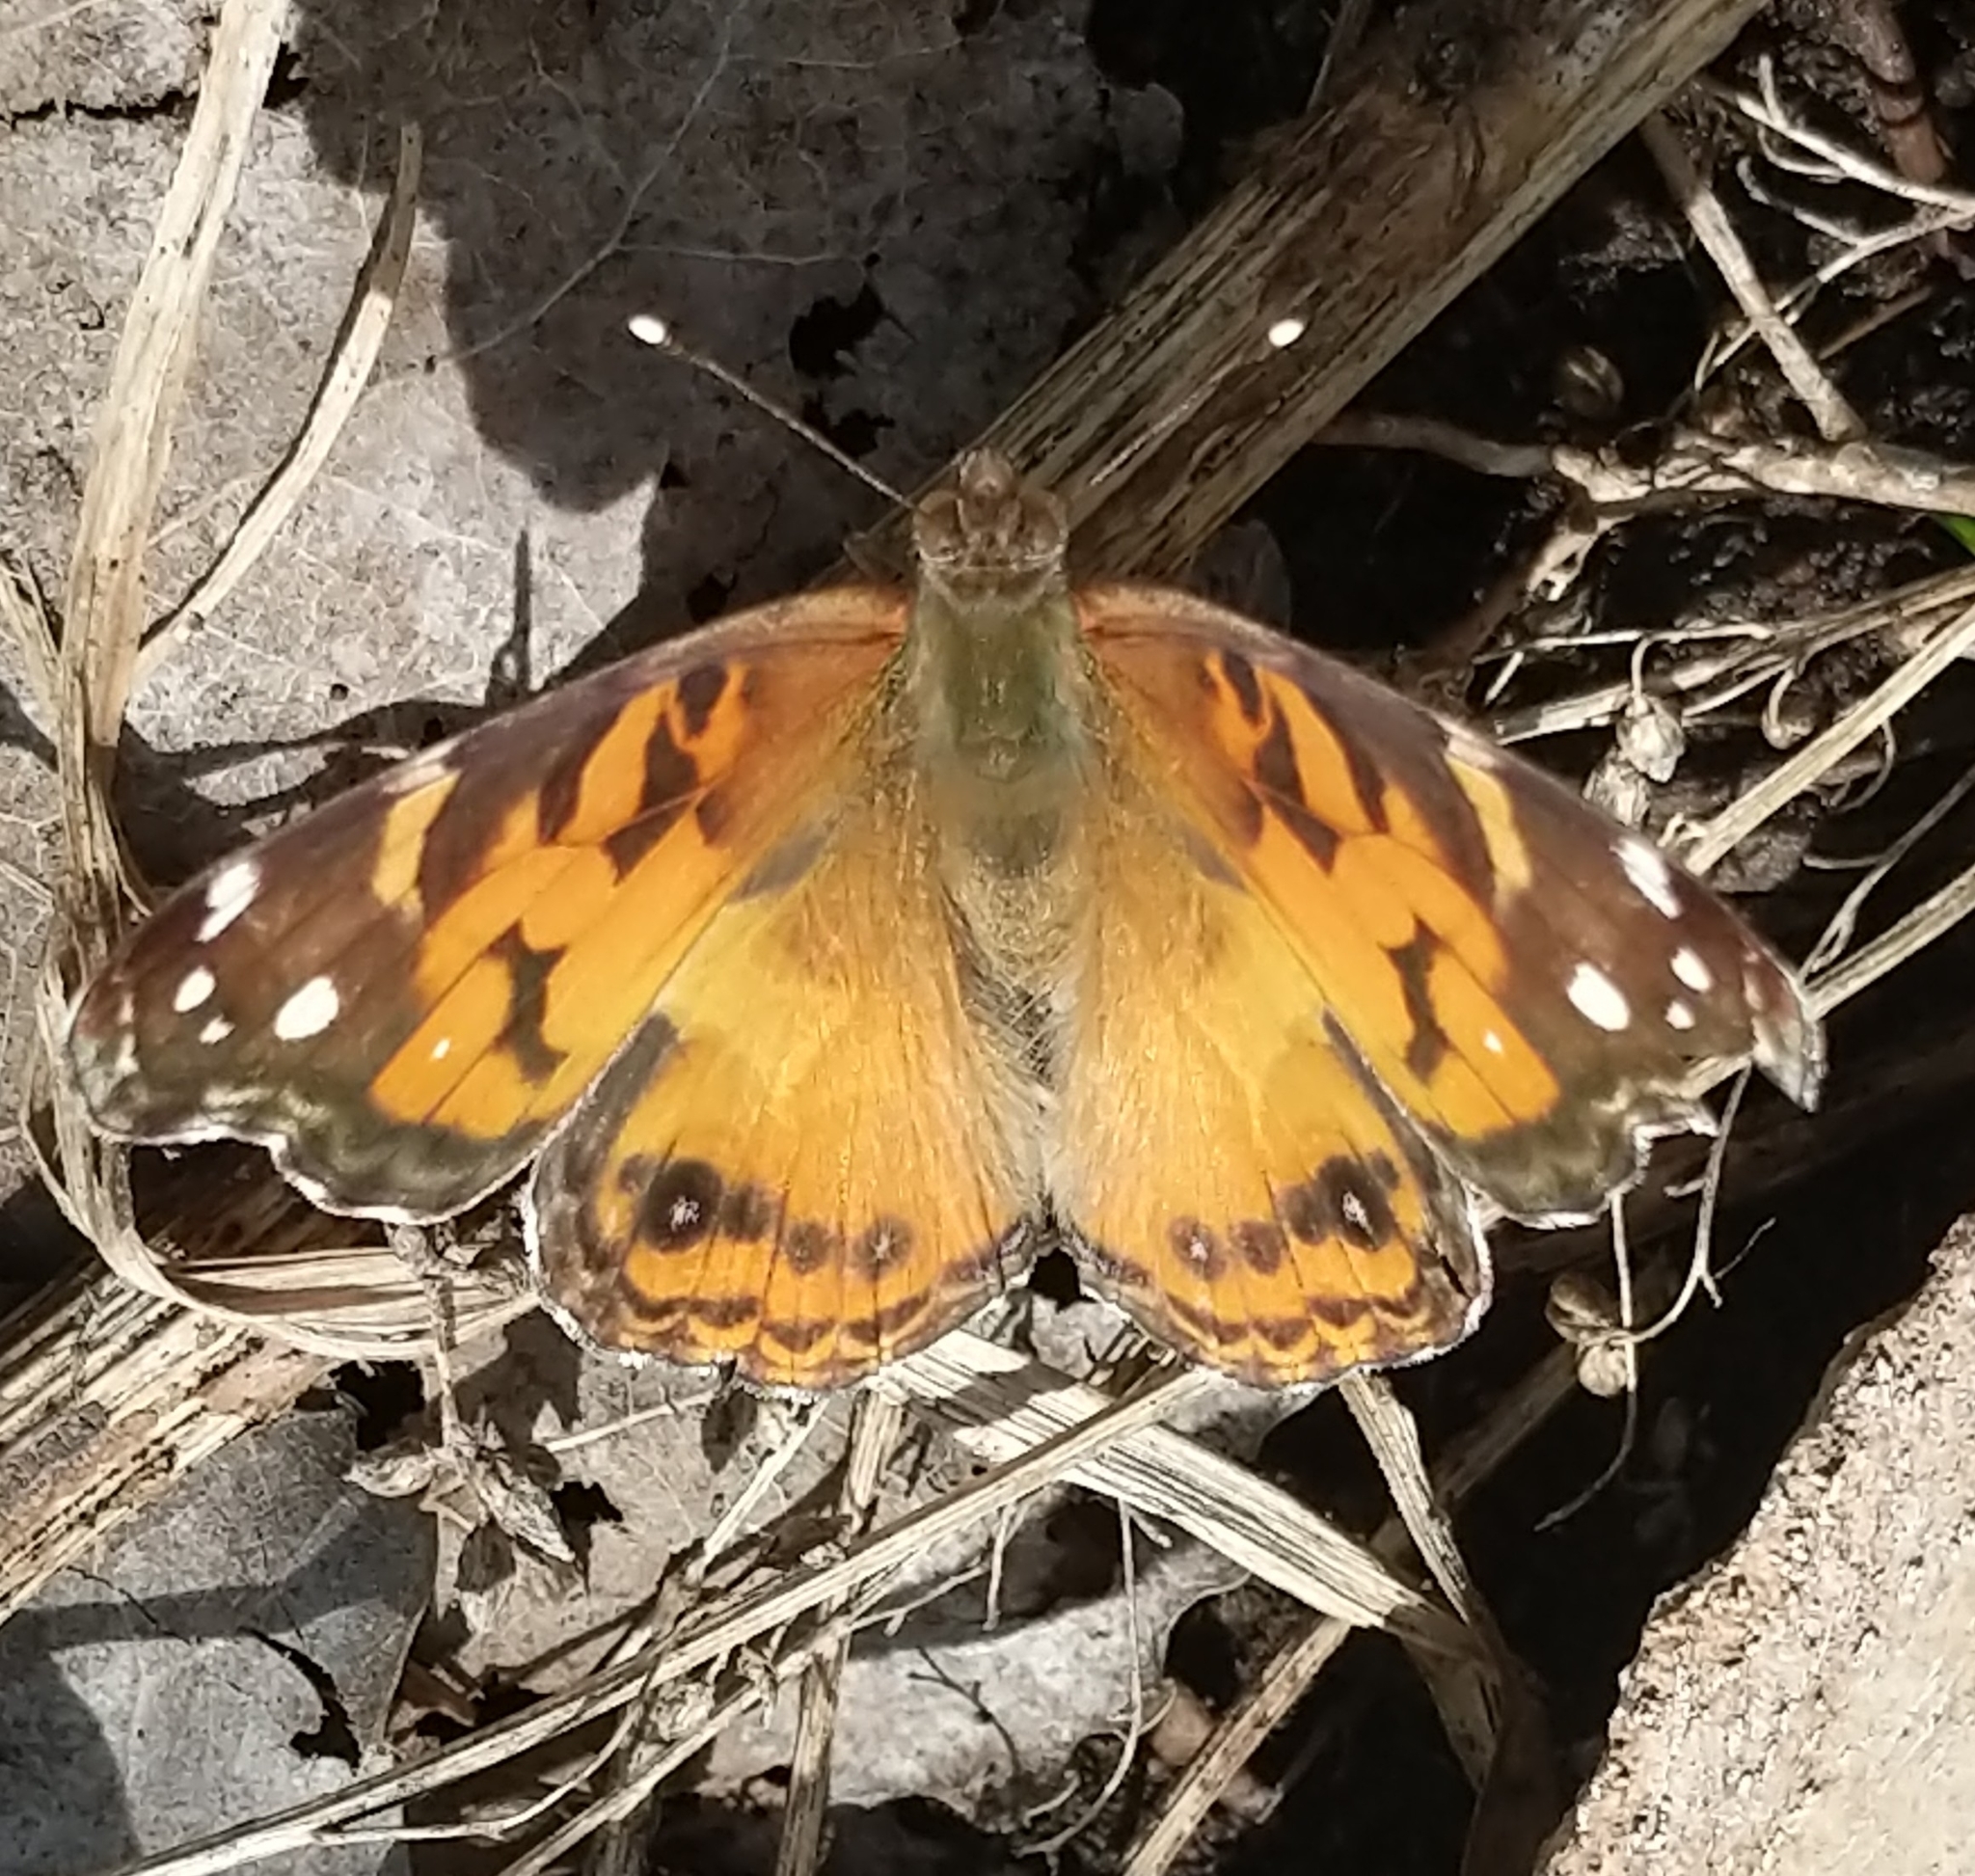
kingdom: Animalia
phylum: Arthropoda
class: Insecta
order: Lepidoptera
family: Nymphalidae
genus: Vanessa
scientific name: Vanessa virginiensis
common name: American lady
